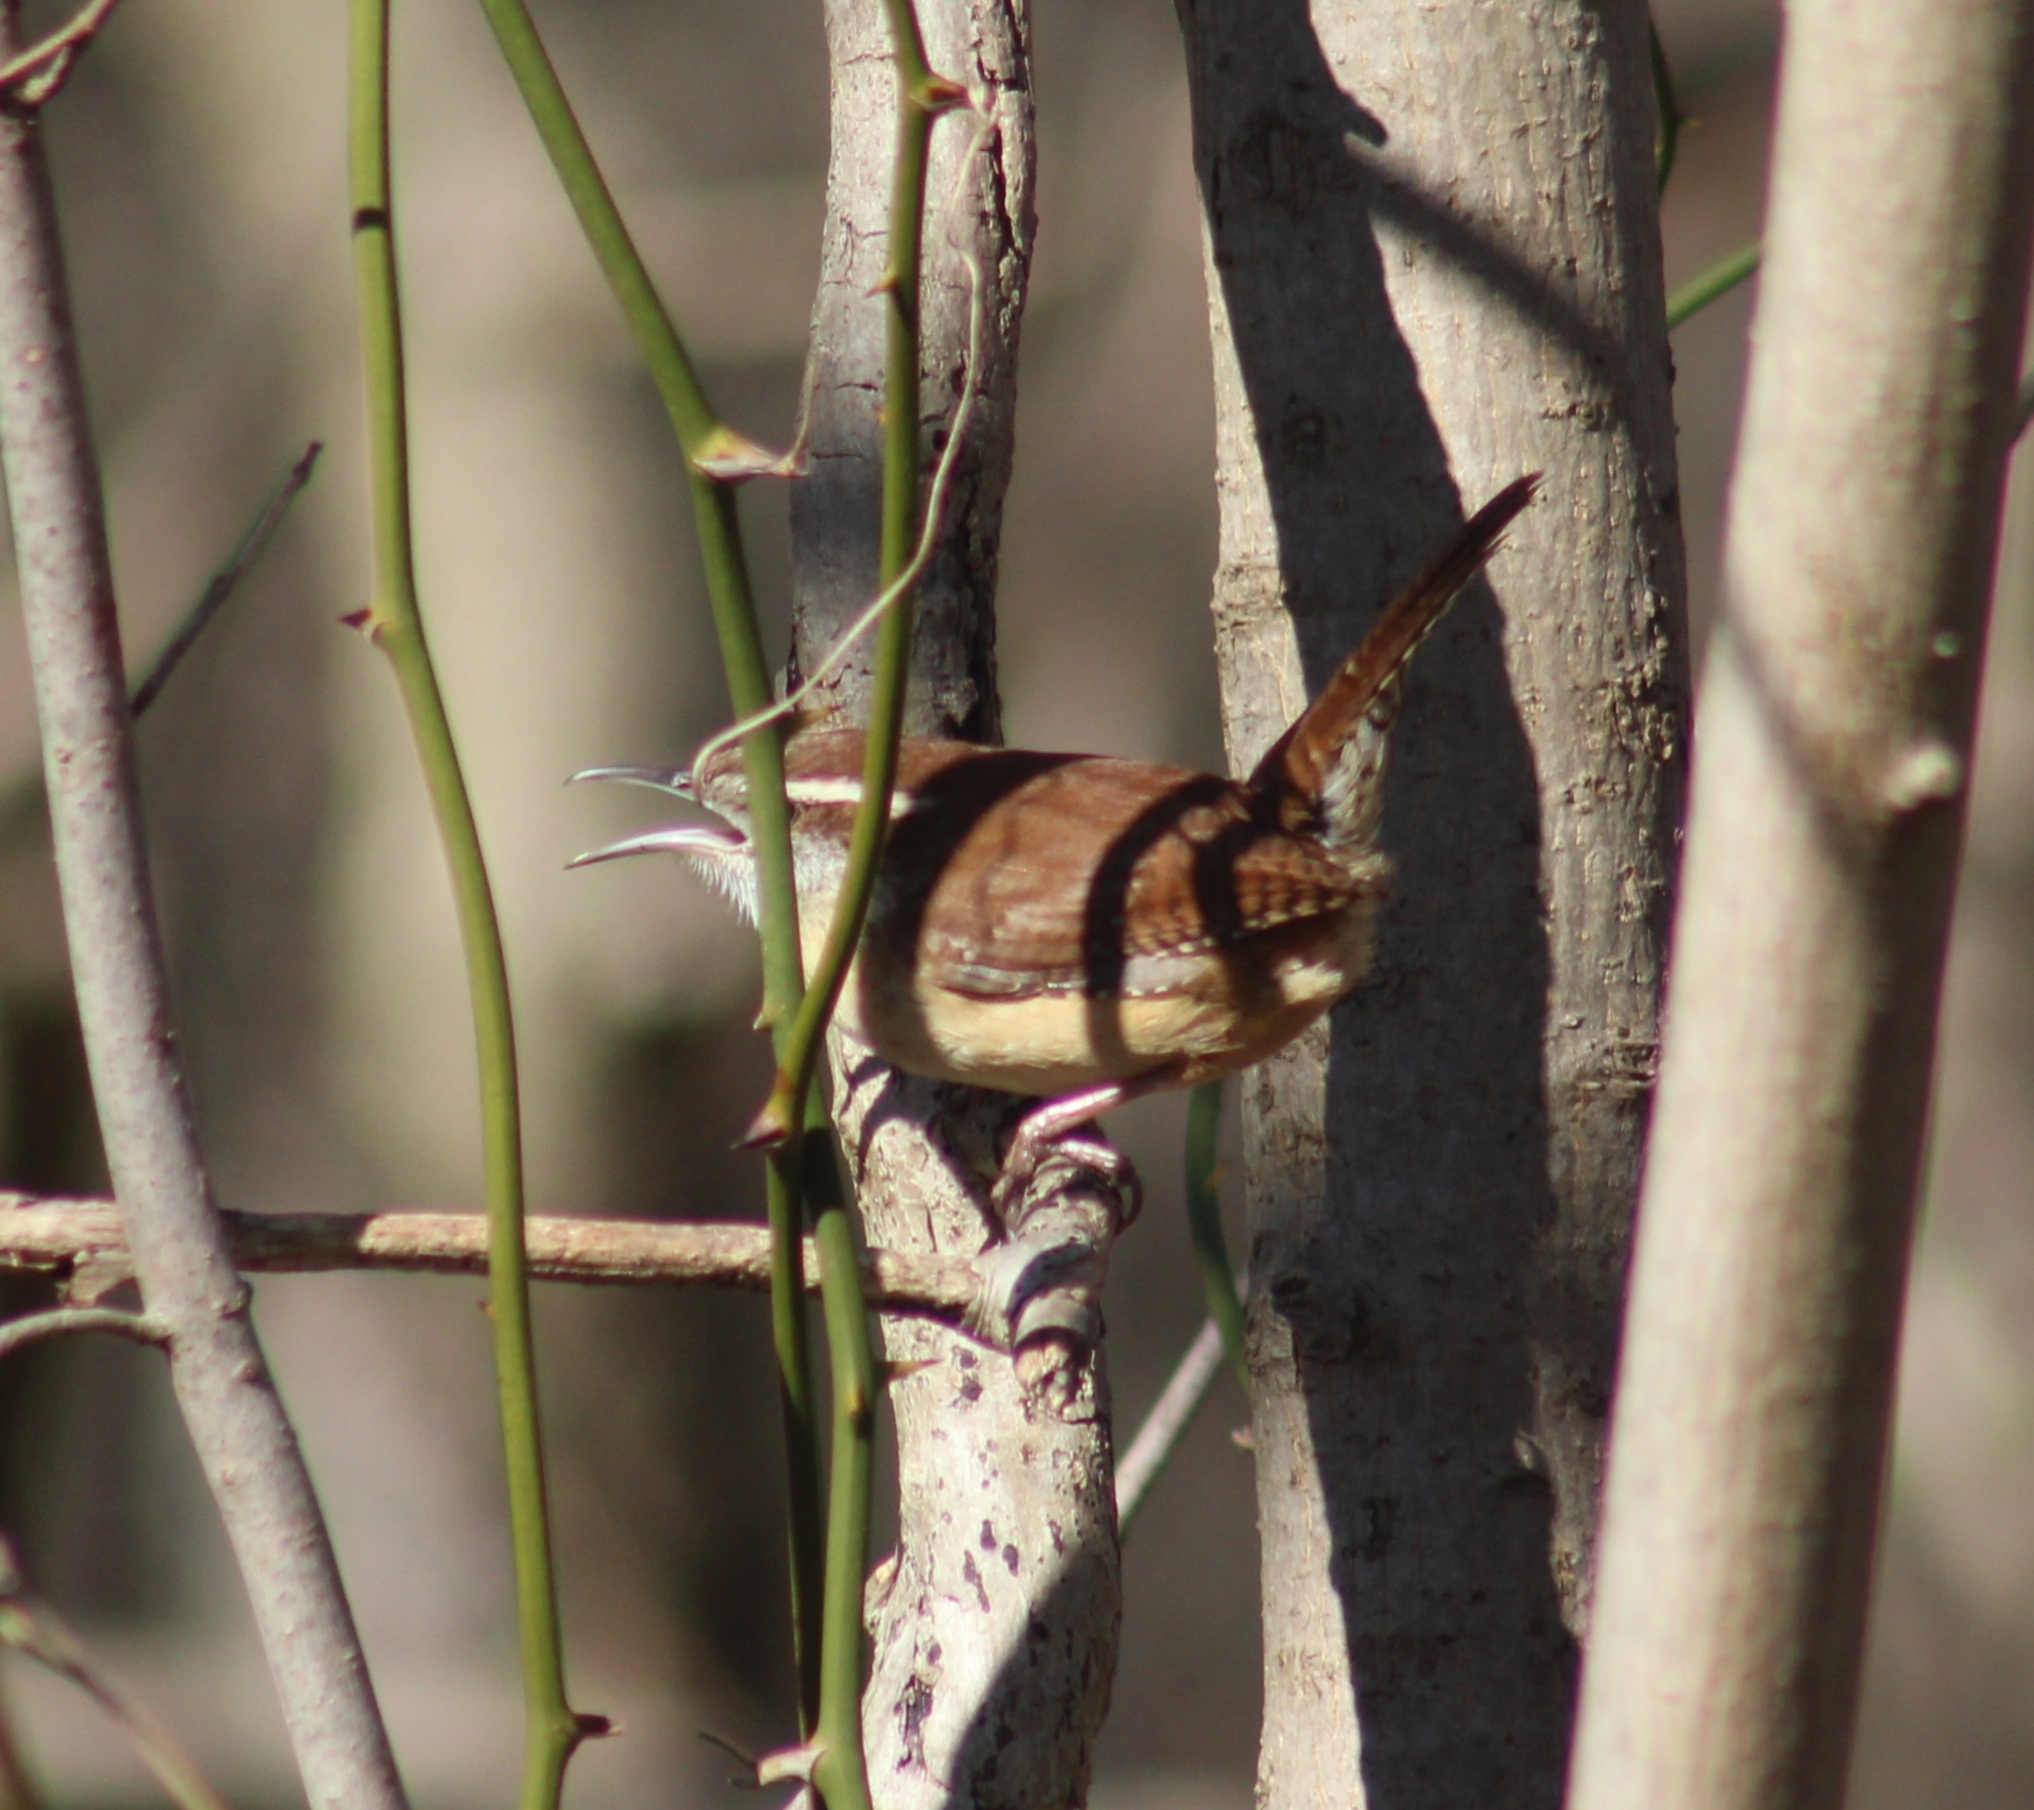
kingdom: Animalia
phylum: Chordata
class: Aves
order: Passeriformes
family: Troglodytidae
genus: Thryothorus
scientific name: Thryothorus ludovicianus
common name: Carolina wren
